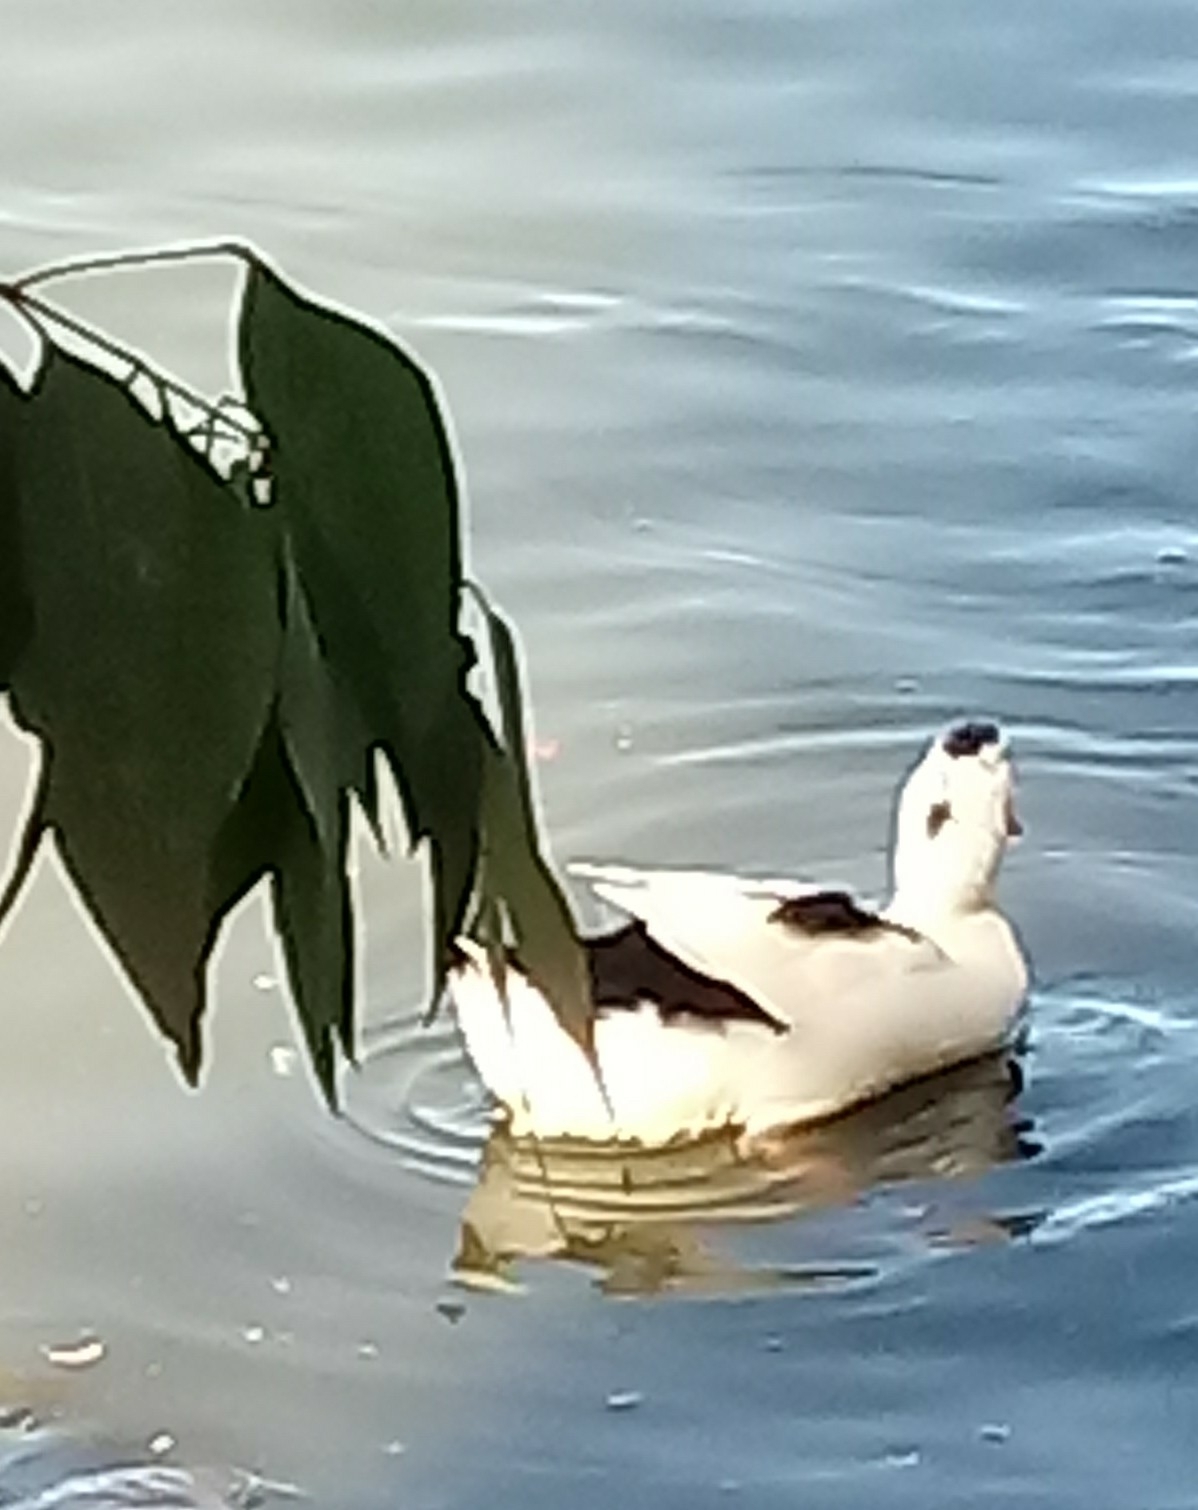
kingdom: Animalia
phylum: Chordata
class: Aves
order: Anseriformes
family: Anatidae
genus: Anas
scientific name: Anas platyrhynchos
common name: Mallard
